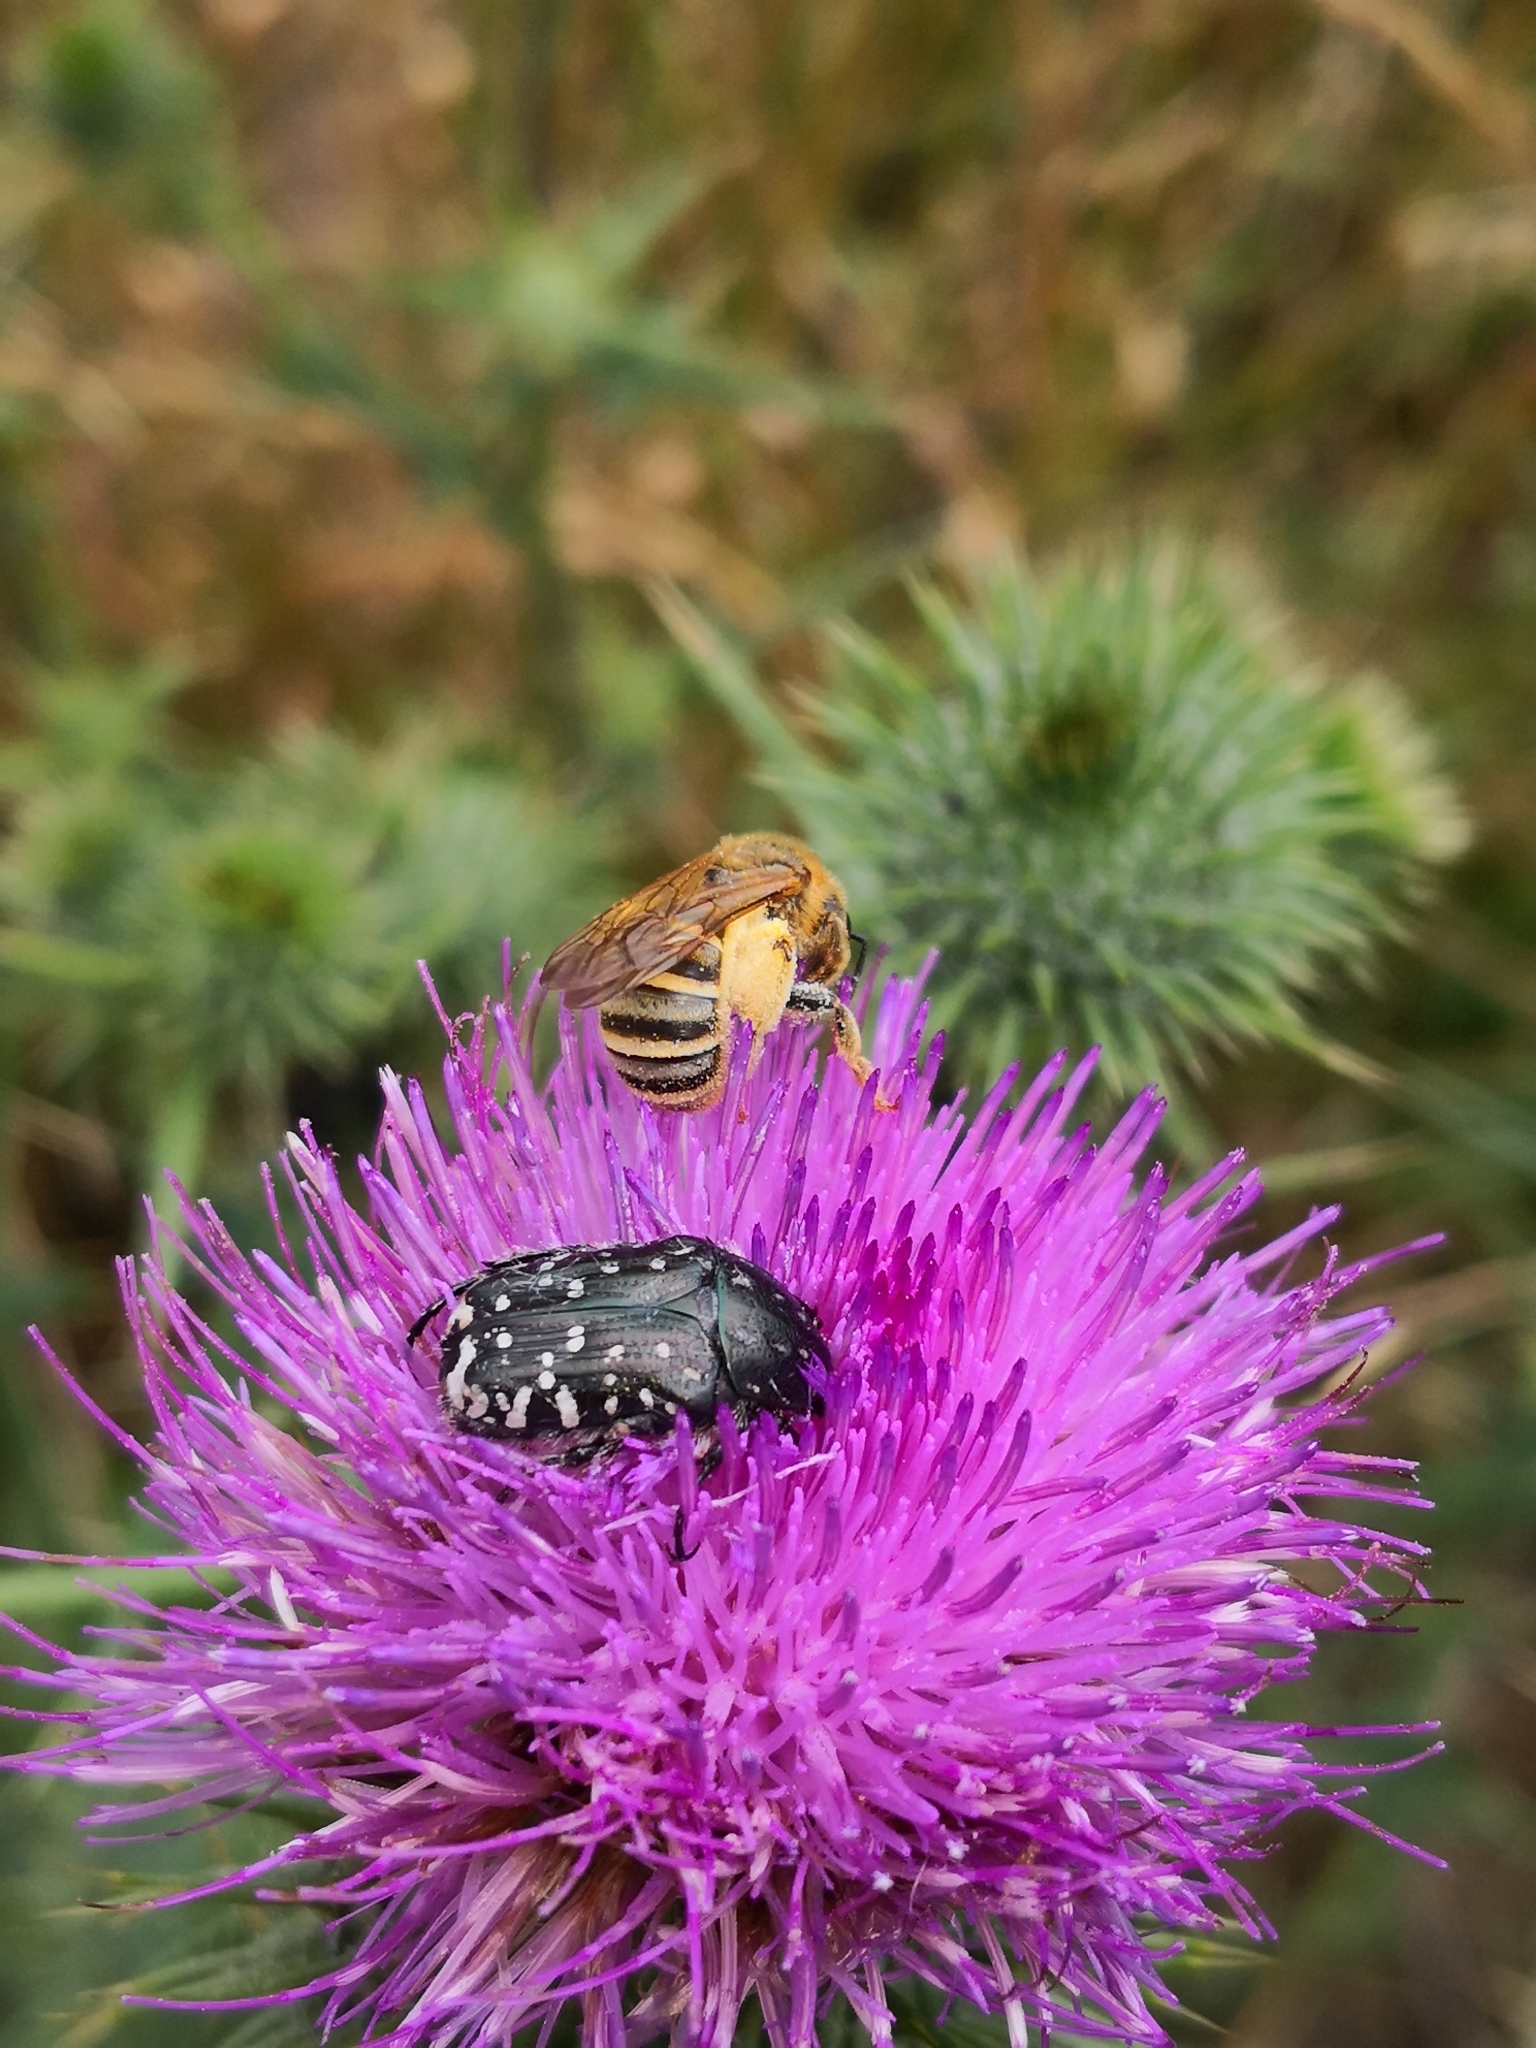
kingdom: Animalia
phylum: Arthropoda
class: Insecta
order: Coleoptera
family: Scarabaeidae
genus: Oxythyrea
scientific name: Oxythyrea funesta
